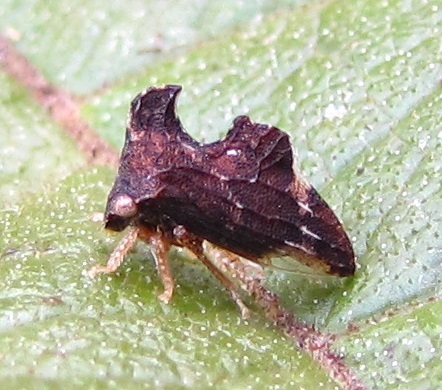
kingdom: Animalia
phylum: Arthropoda
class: Insecta
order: Hemiptera
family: Membracidae
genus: Entylia
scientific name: Entylia carinata
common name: Keeled treehopper
